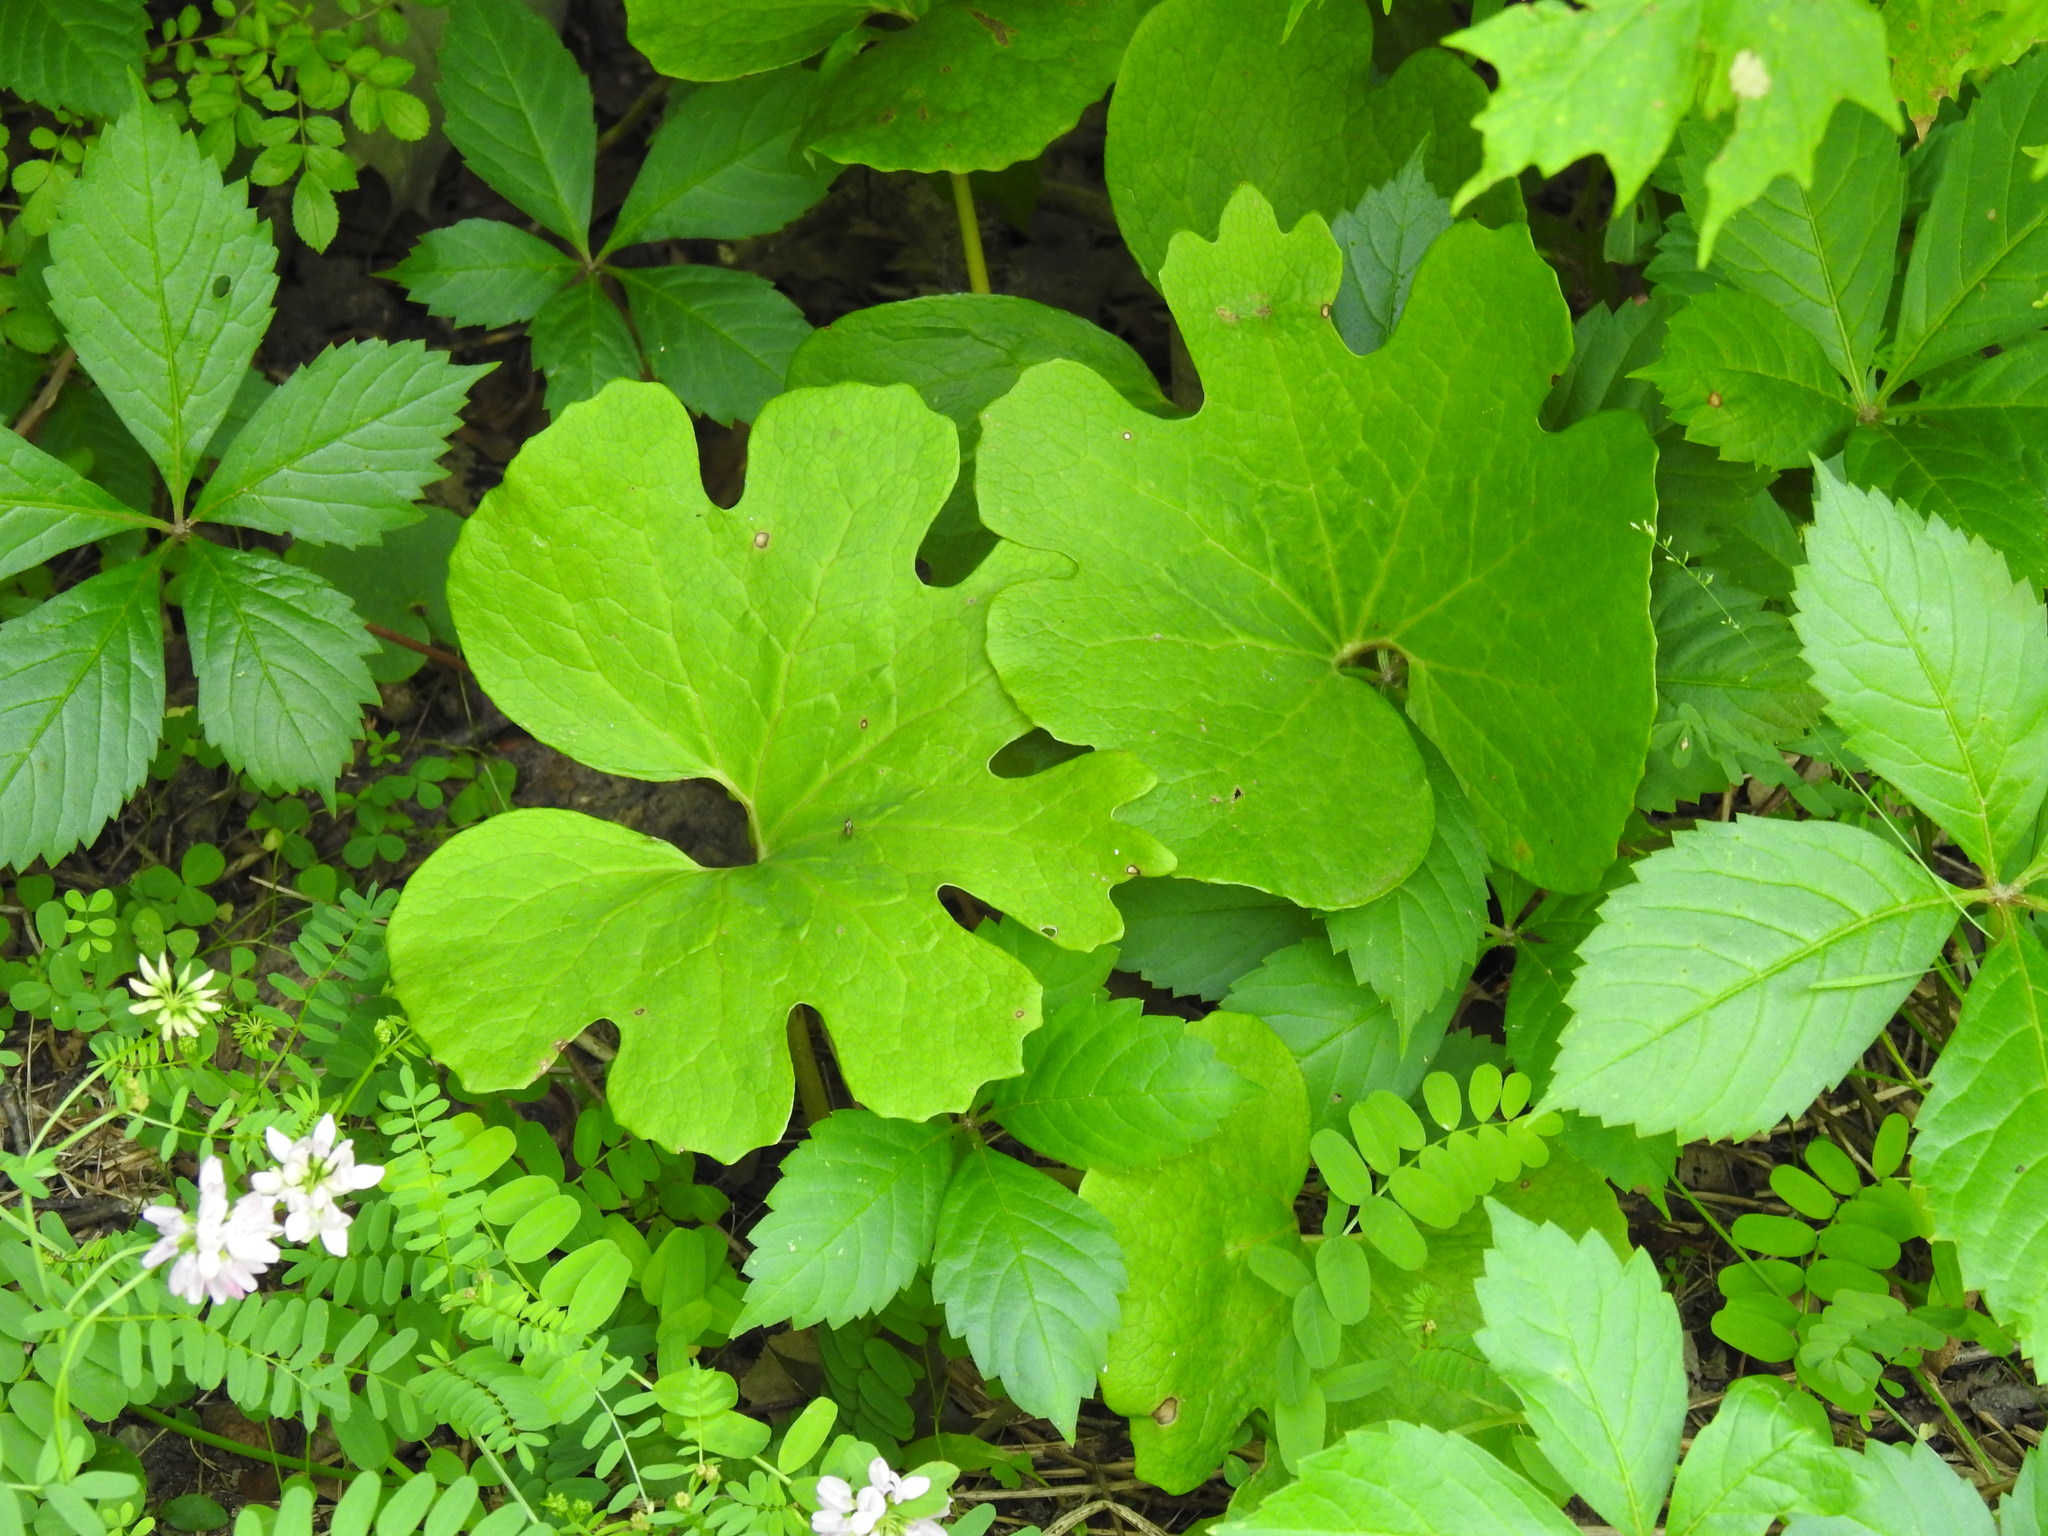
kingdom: Plantae
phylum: Tracheophyta
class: Magnoliopsida
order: Ranunculales
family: Papaveraceae
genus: Sanguinaria
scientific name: Sanguinaria canadensis
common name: Bloodroot
